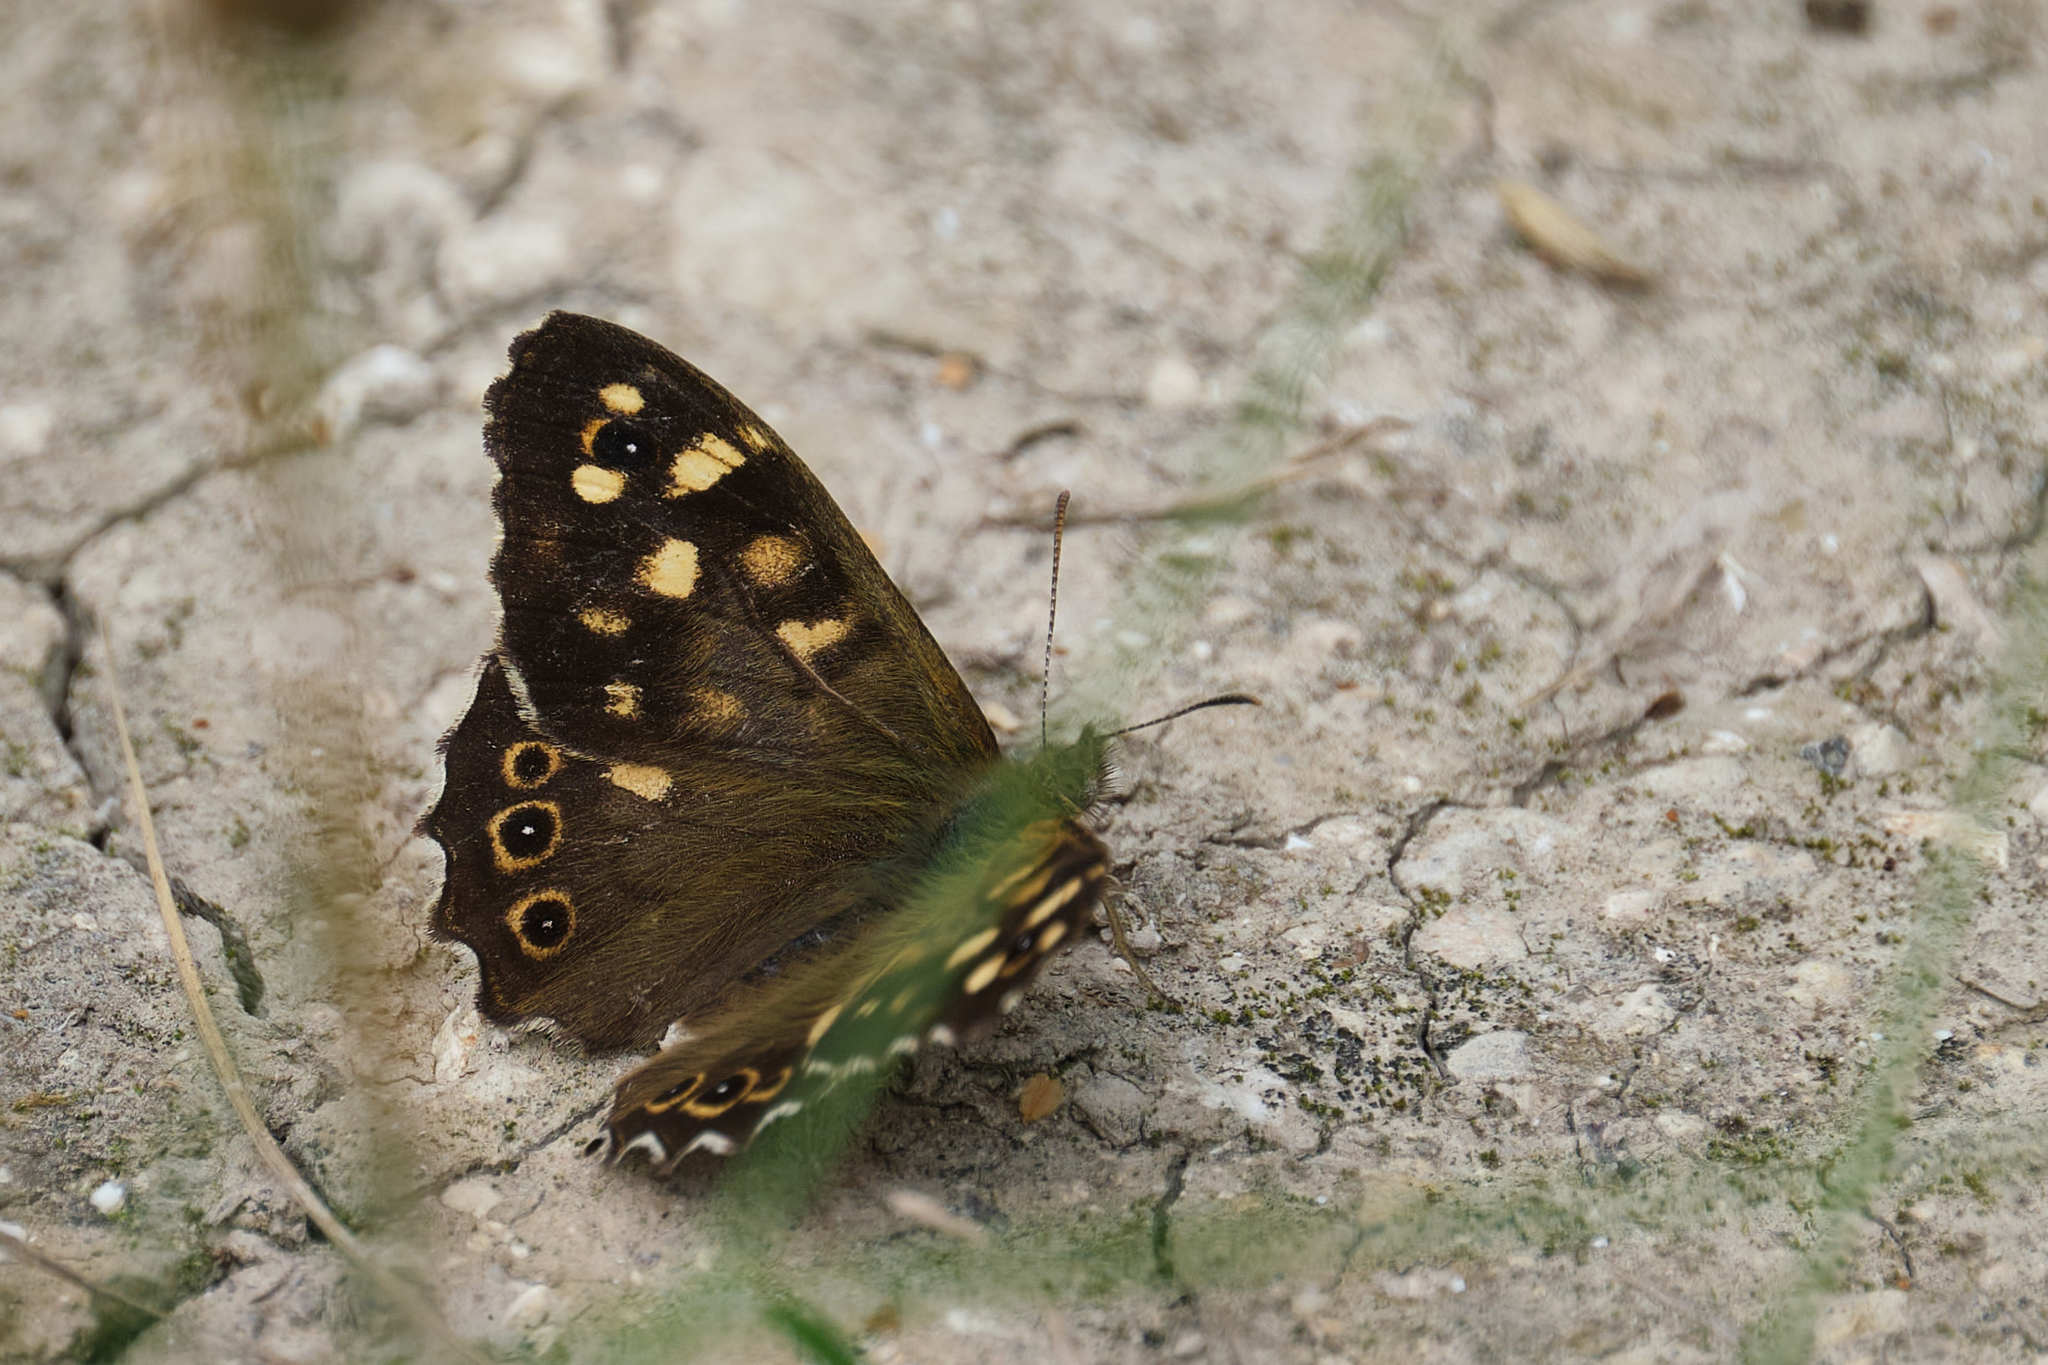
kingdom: Animalia
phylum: Arthropoda
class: Insecta
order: Lepidoptera
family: Nymphalidae
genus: Pararge
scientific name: Pararge aegeria
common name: Speckled wood
